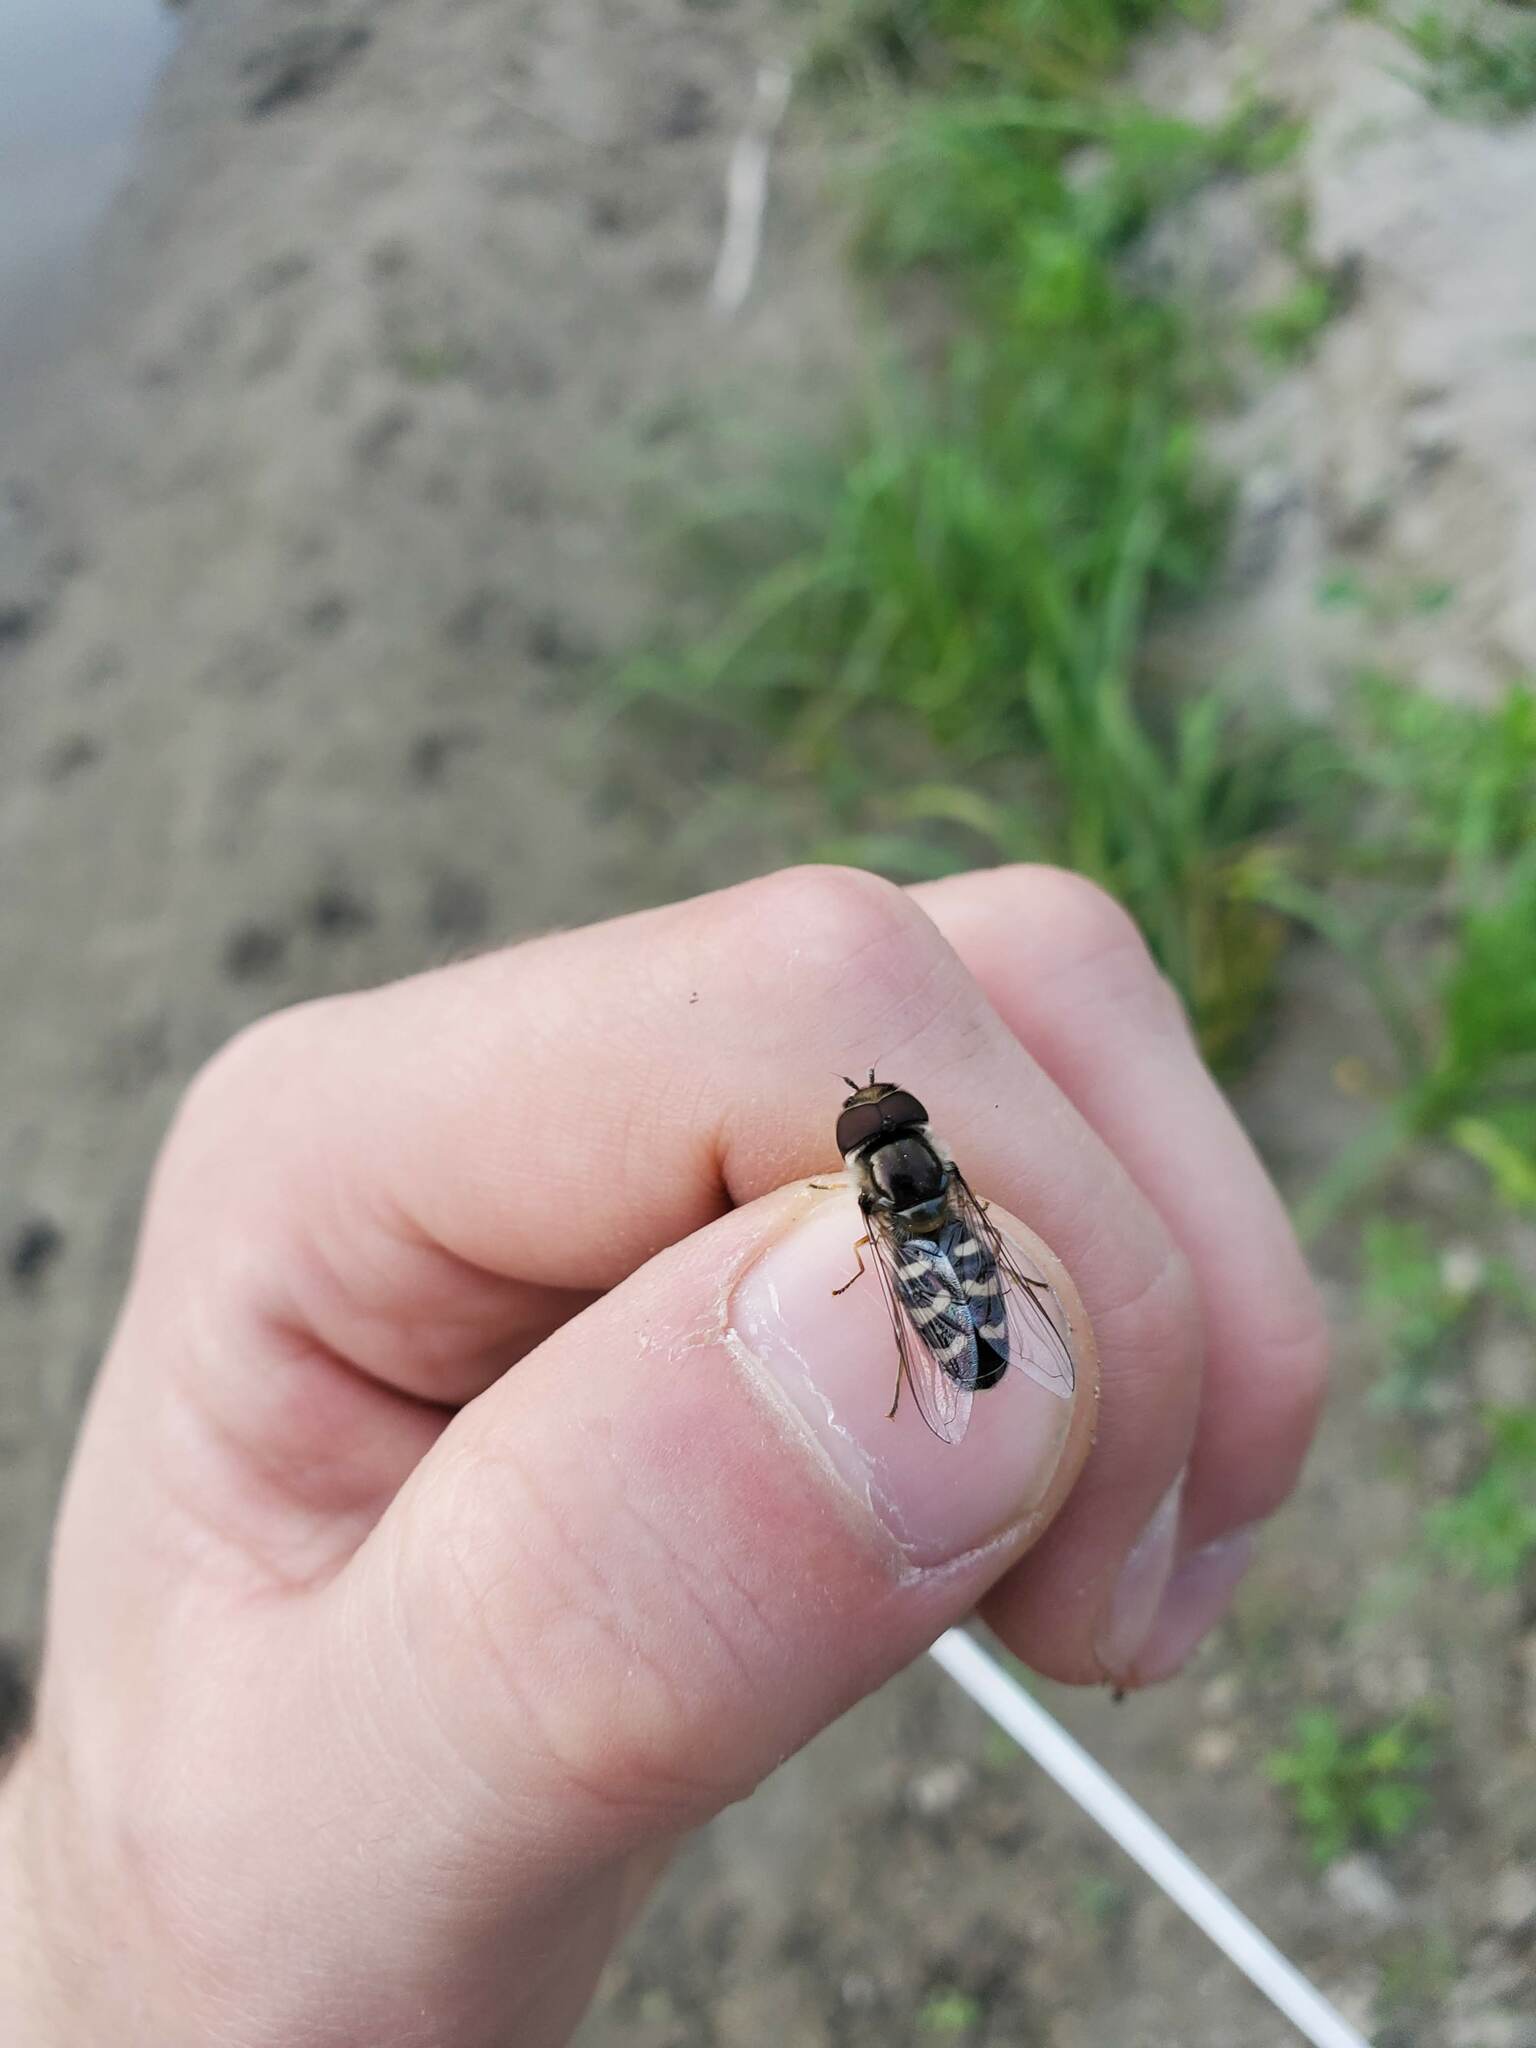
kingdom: Animalia
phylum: Arthropoda
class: Insecta
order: Diptera
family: Syrphidae
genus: Scaeva
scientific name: Scaeva affinis
